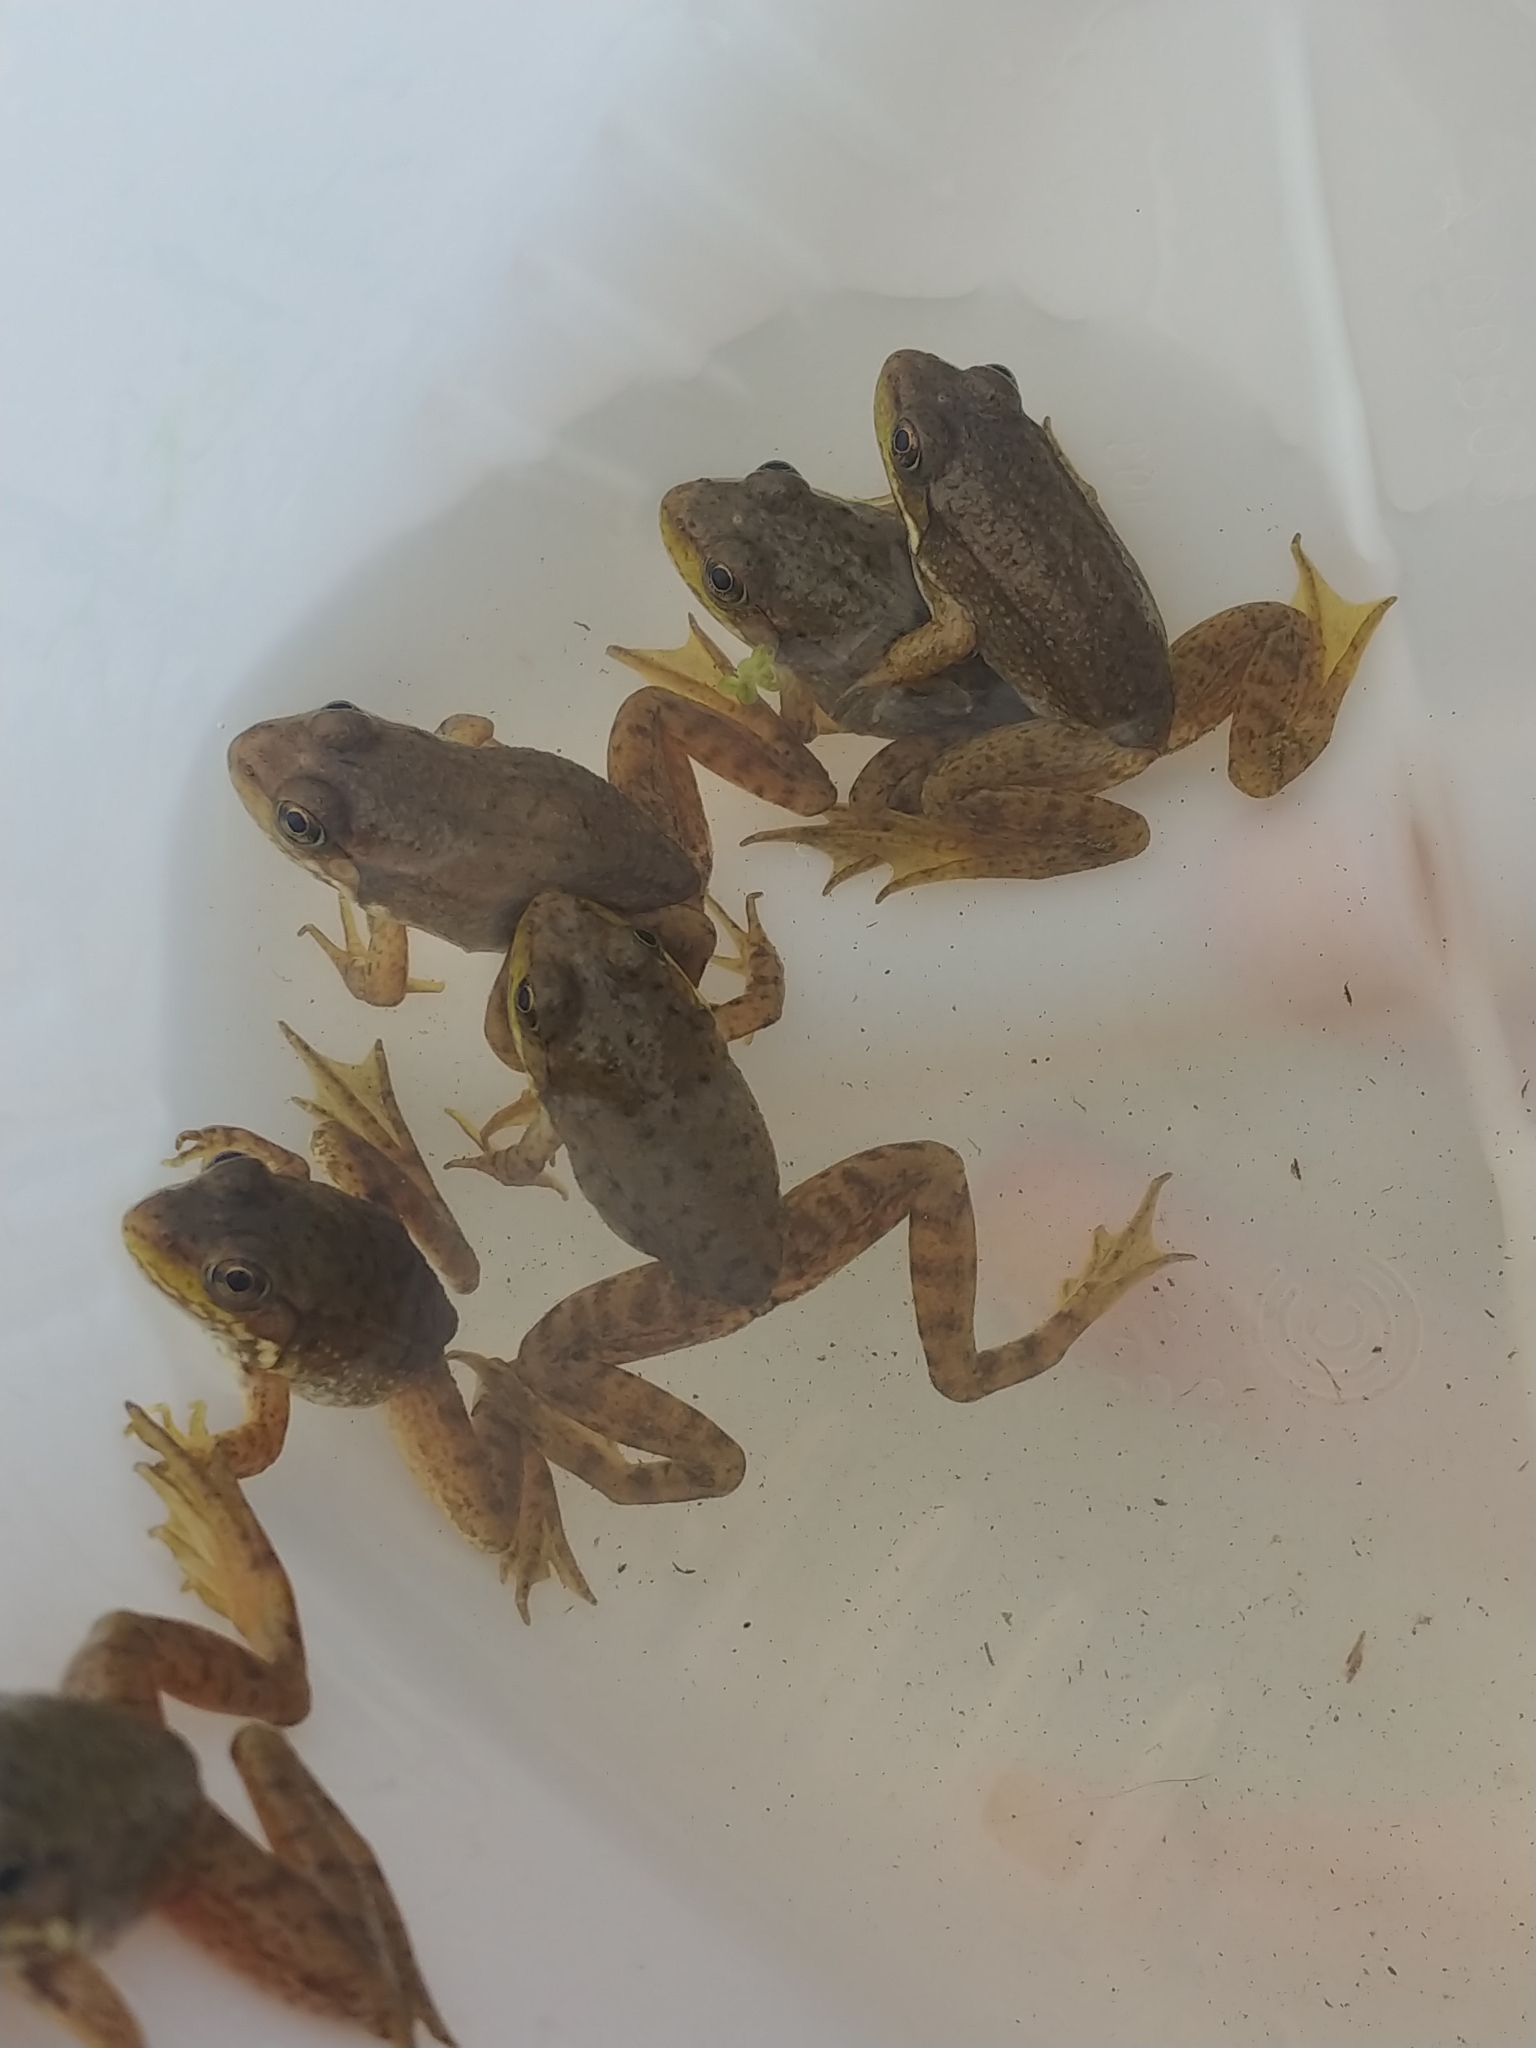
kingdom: Animalia
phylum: Chordata
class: Amphibia
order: Anura
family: Ranidae
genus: Lithobates
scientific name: Lithobates clamitans
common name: Green frog
